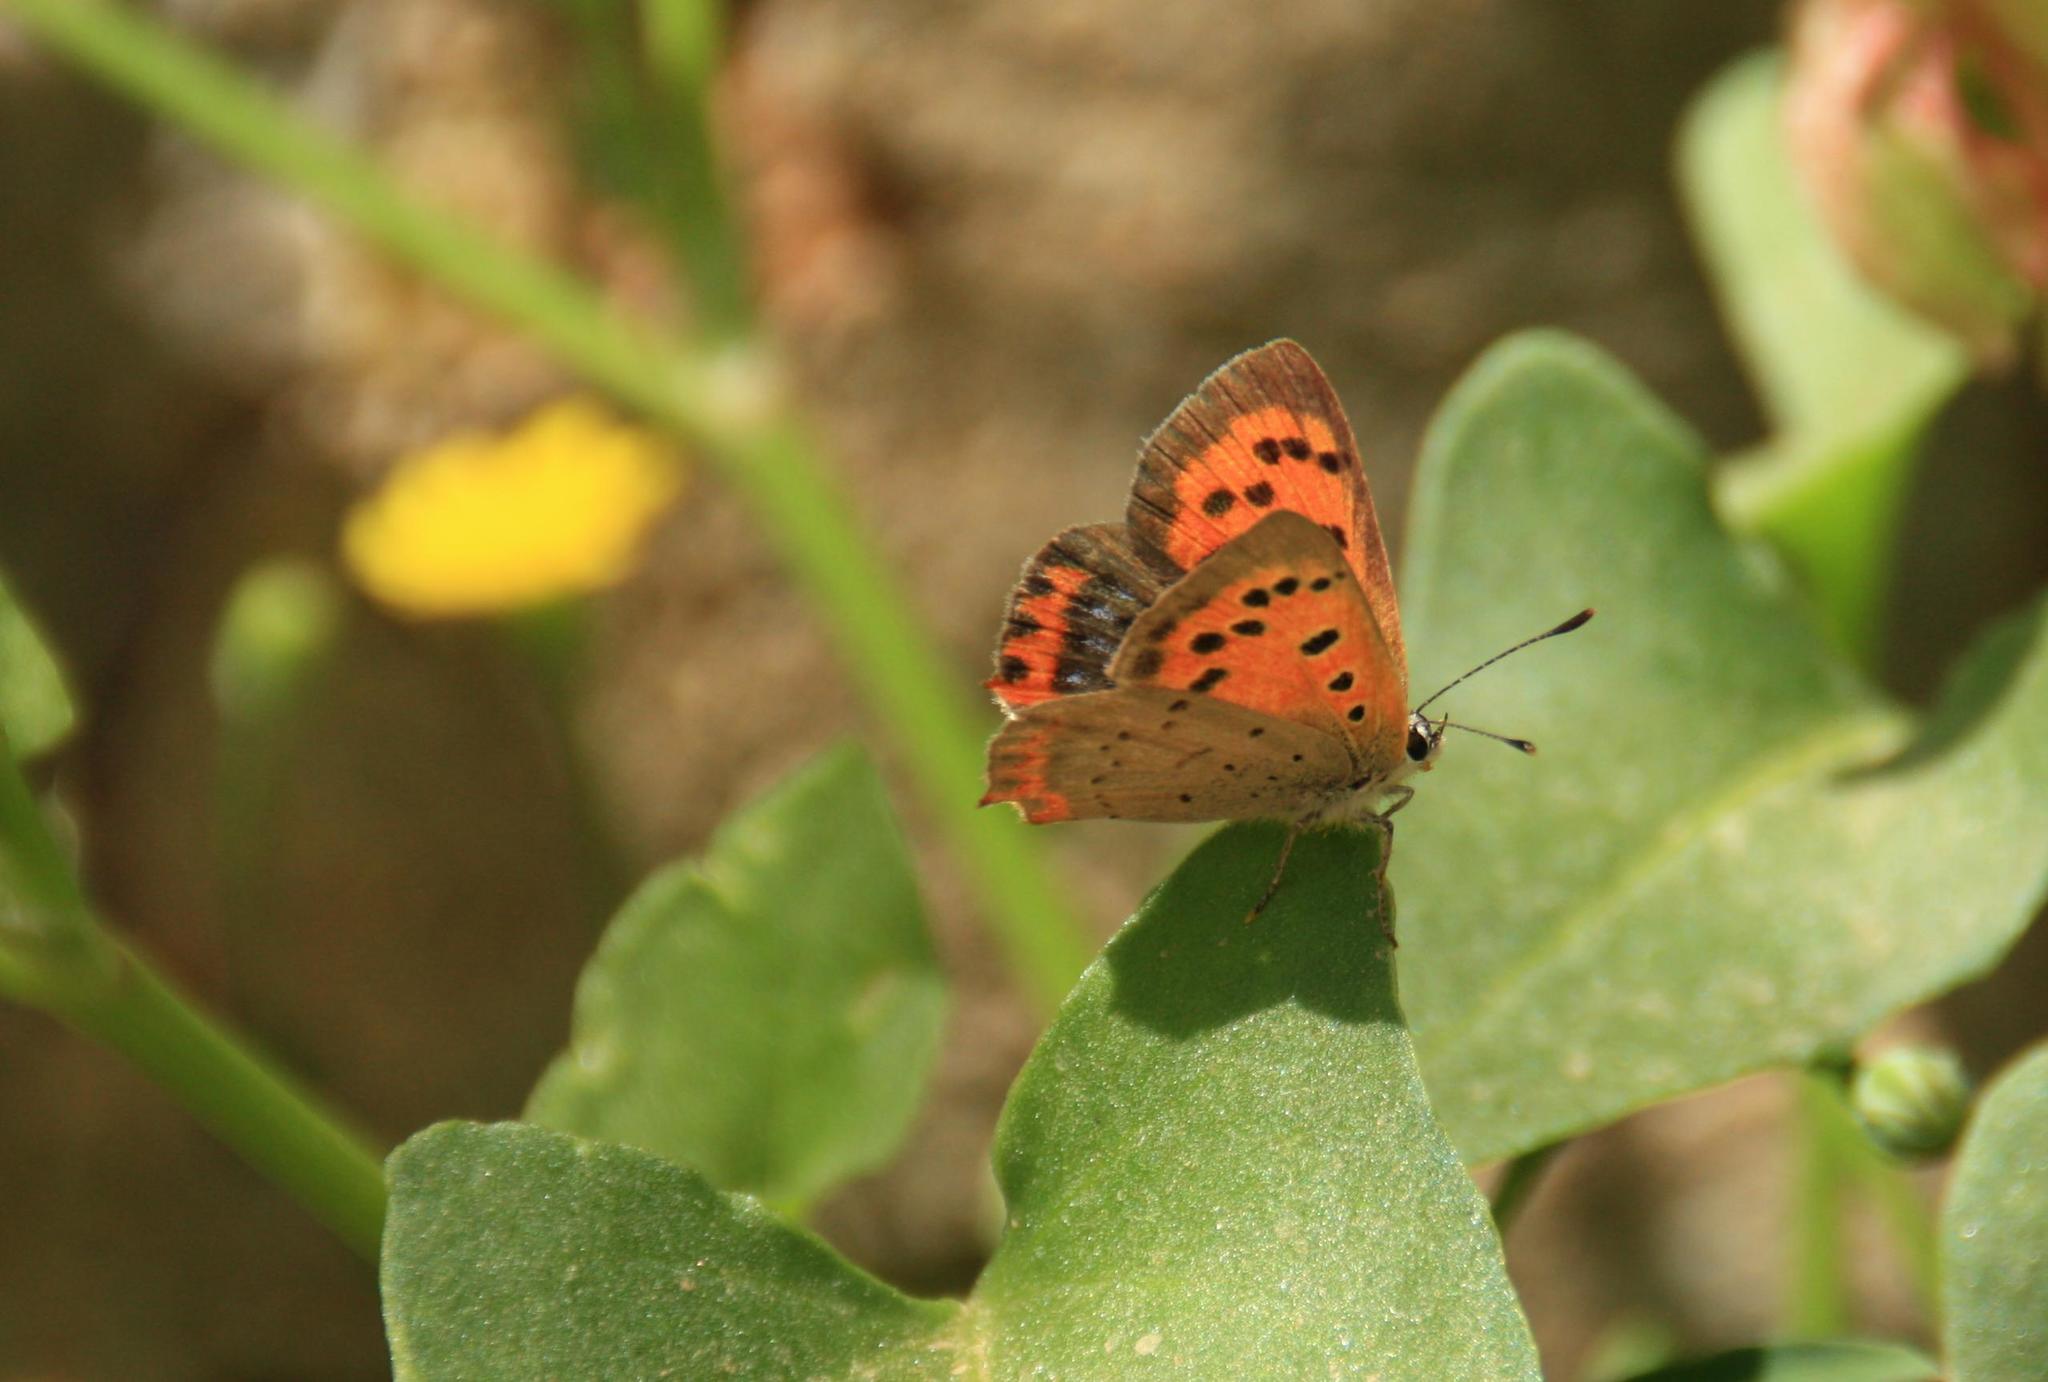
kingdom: Animalia
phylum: Arthropoda
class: Insecta
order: Lepidoptera
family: Lycaenidae
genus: Lycaena
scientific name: Lycaena phlaeas
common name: Small copper
